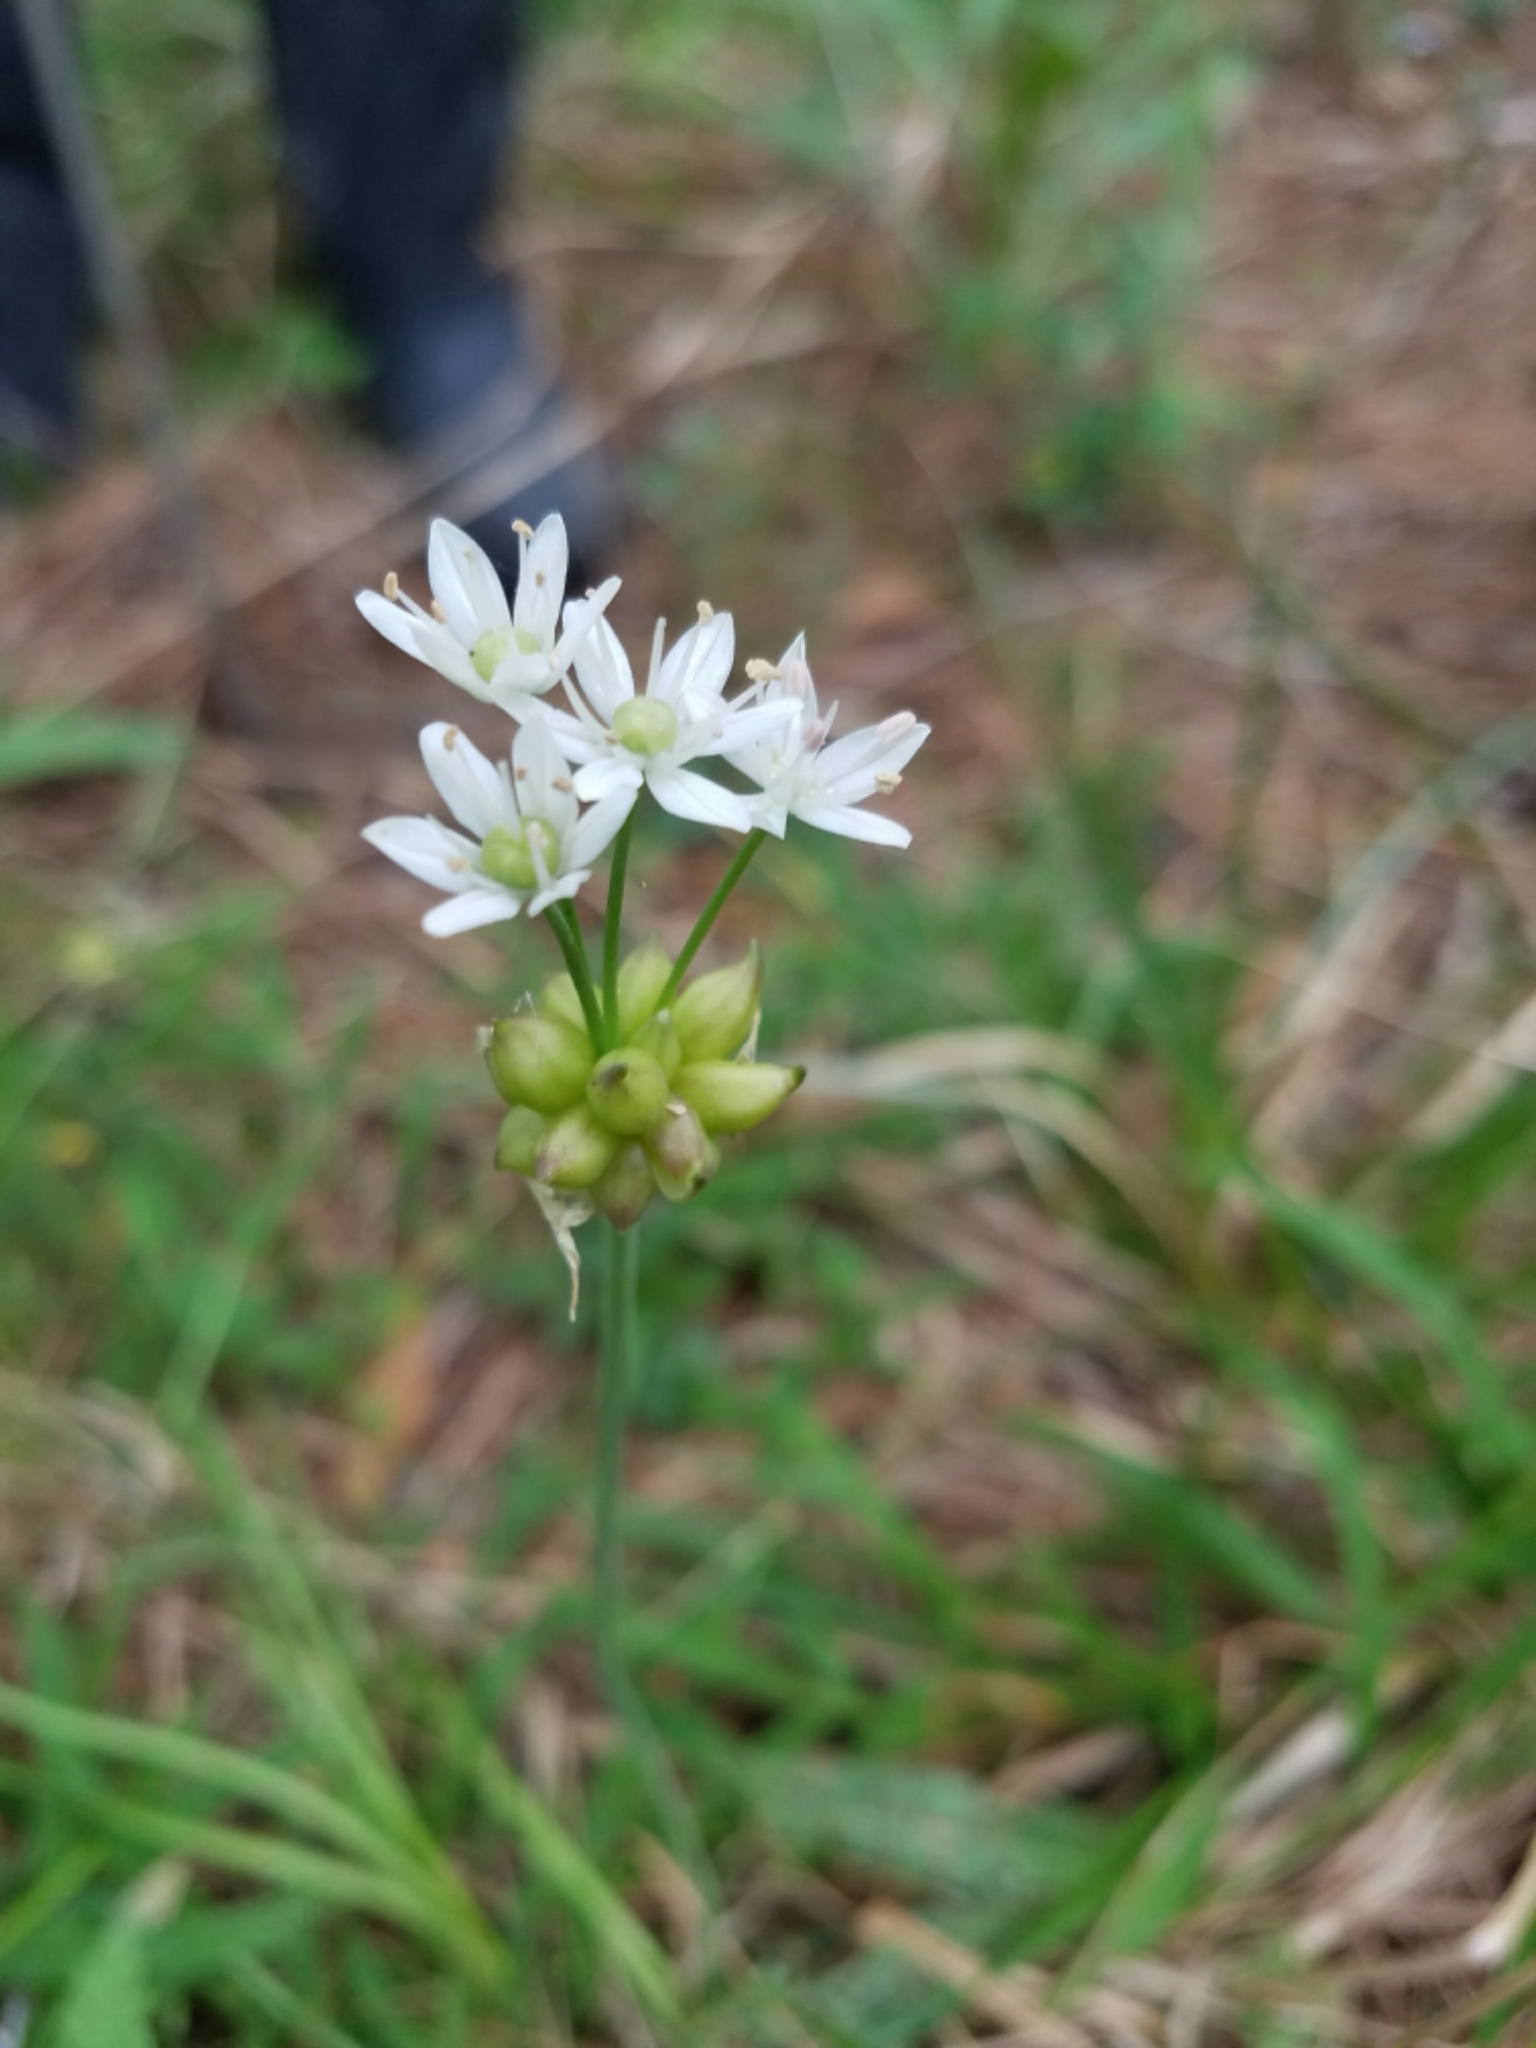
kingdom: Plantae
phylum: Tracheophyta
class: Liliopsida
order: Asparagales
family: Amaryllidaceae
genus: Allium
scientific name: Allium canadense
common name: Meadow garlic
